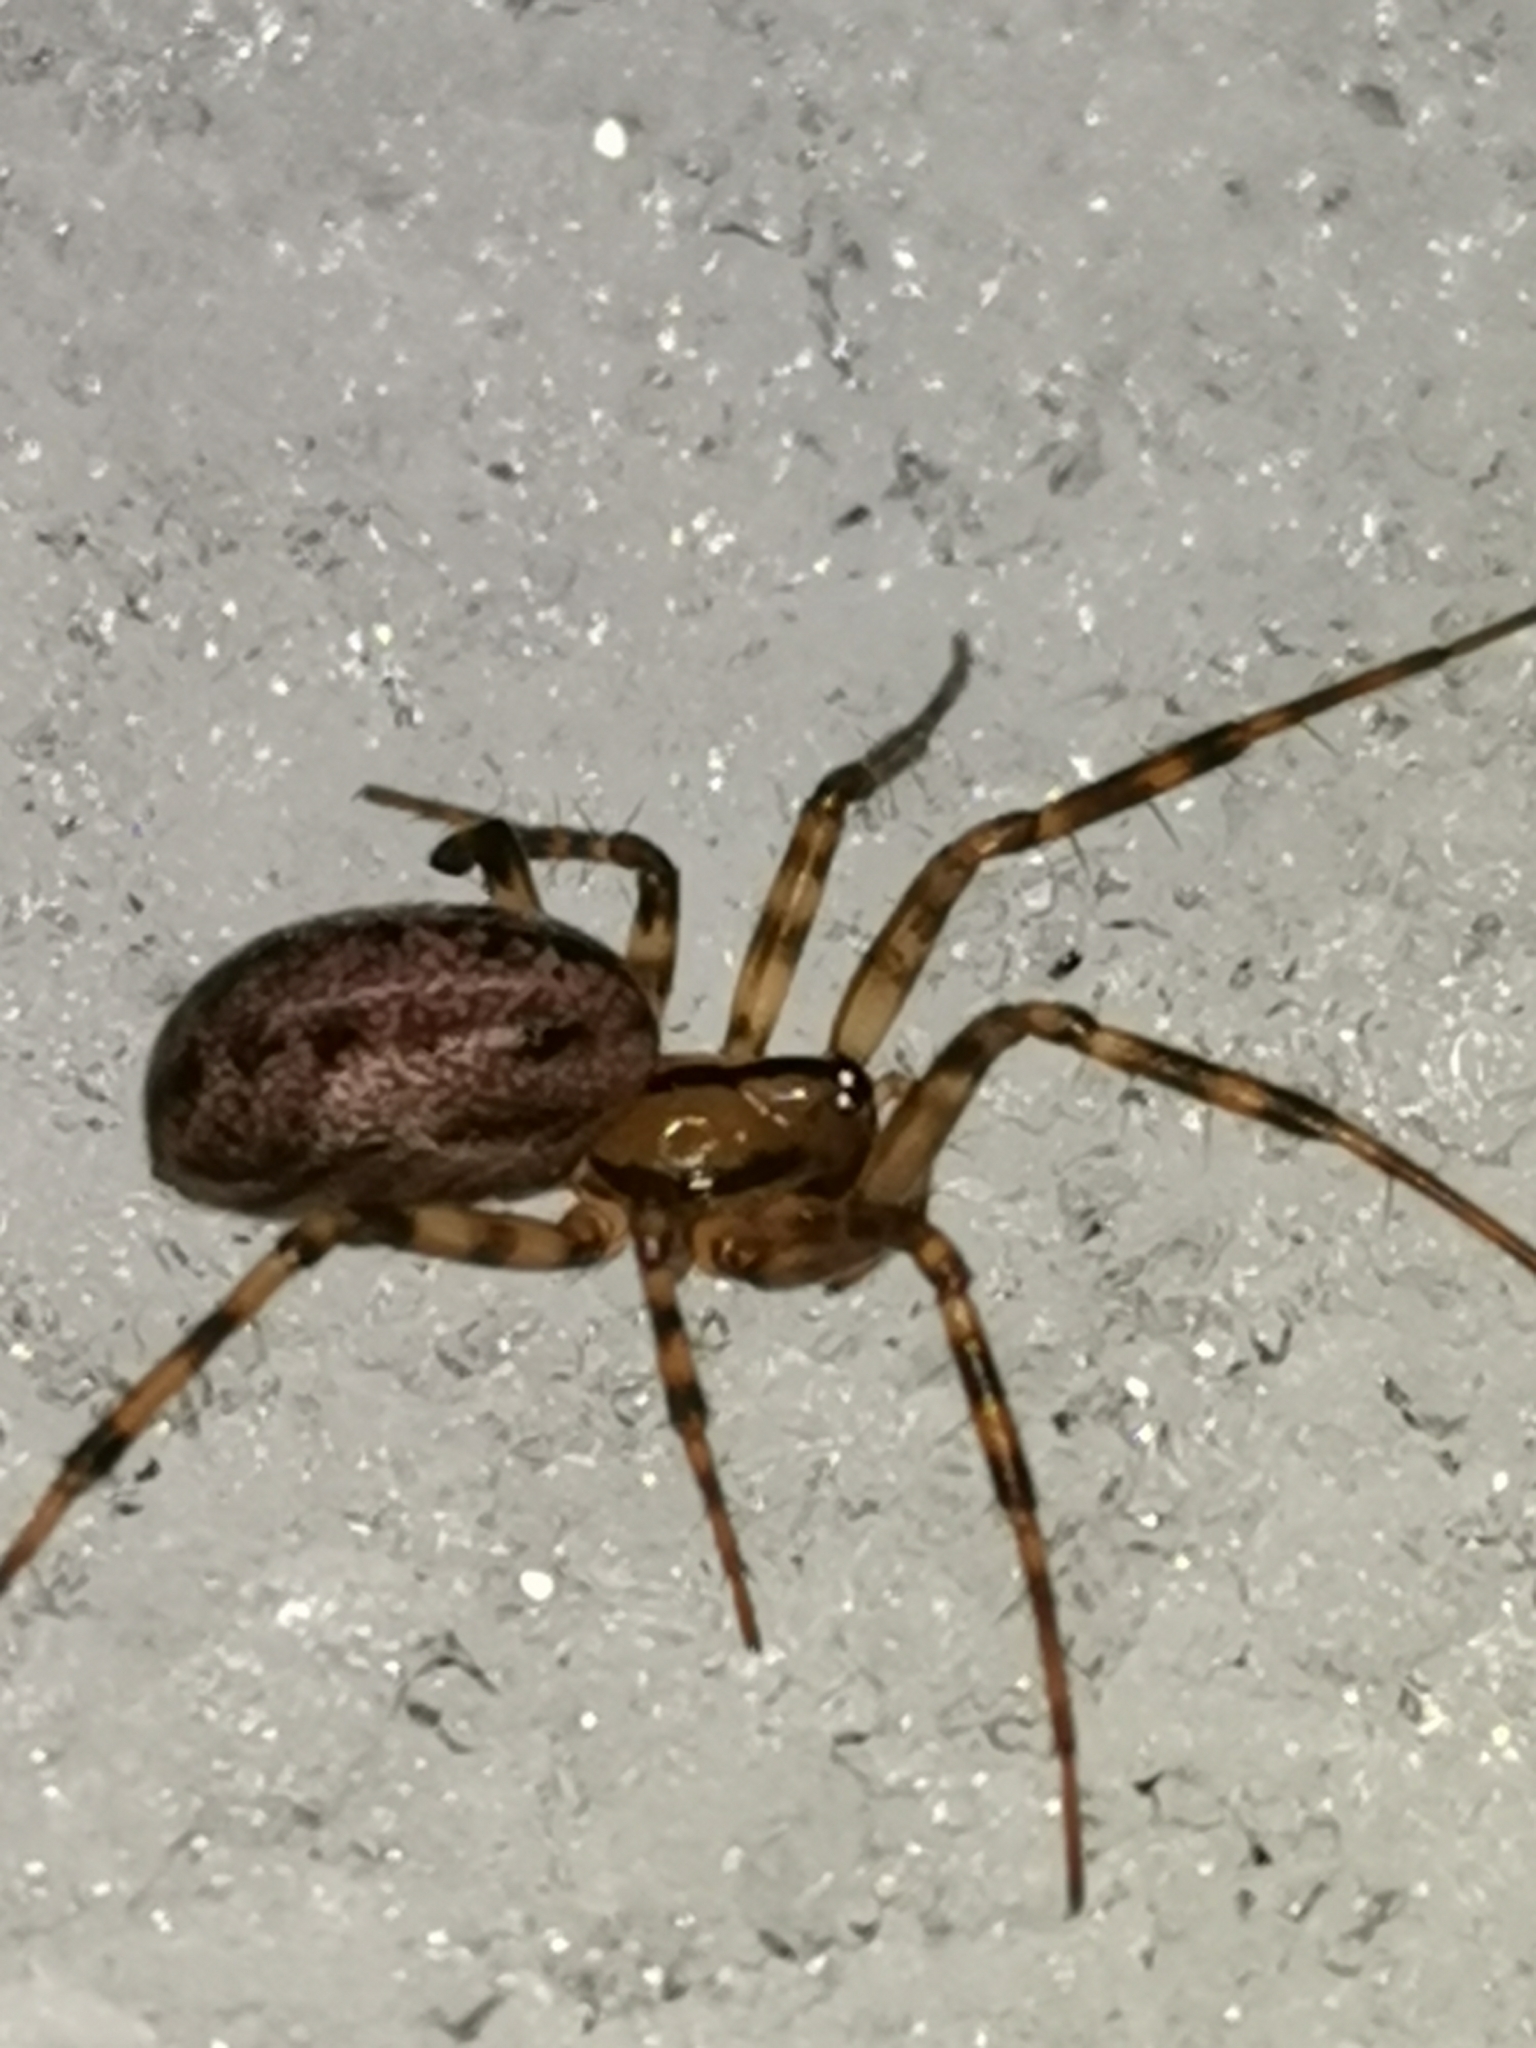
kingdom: Animalia
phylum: Arthropoda
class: Arachnida
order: Araneae
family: Linyphiidae
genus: Stemonyphantes
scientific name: Stemonyphantes lineatus
